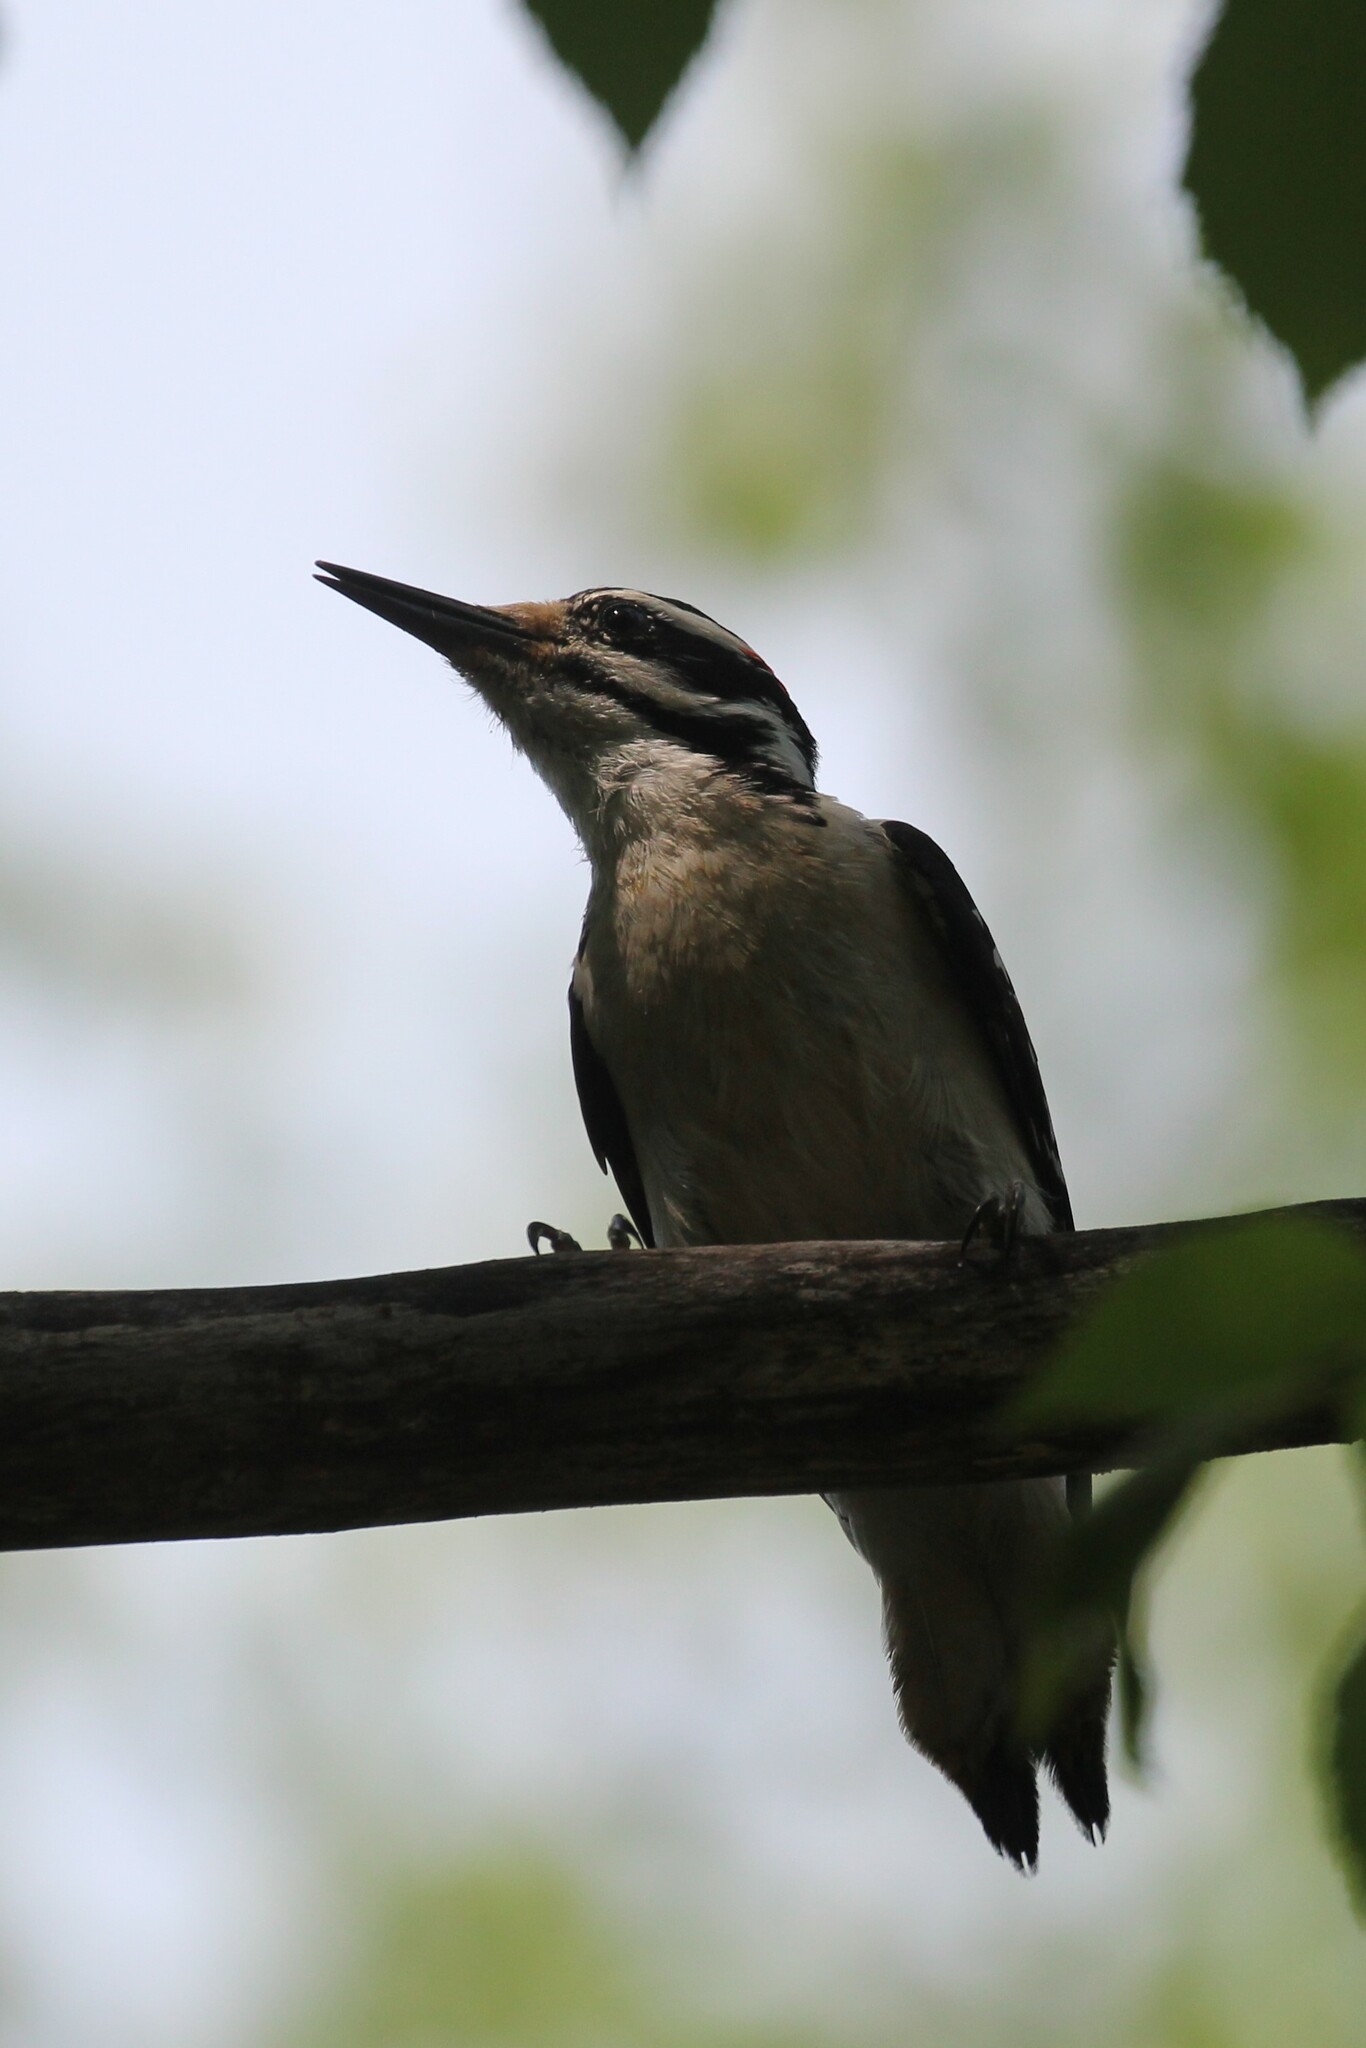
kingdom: Animalia
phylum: Chordata
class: Aves
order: Piciformes
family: Picidae
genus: Leuconotopicus
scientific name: Leuconotopicus villosus
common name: Hairy woodpecker
